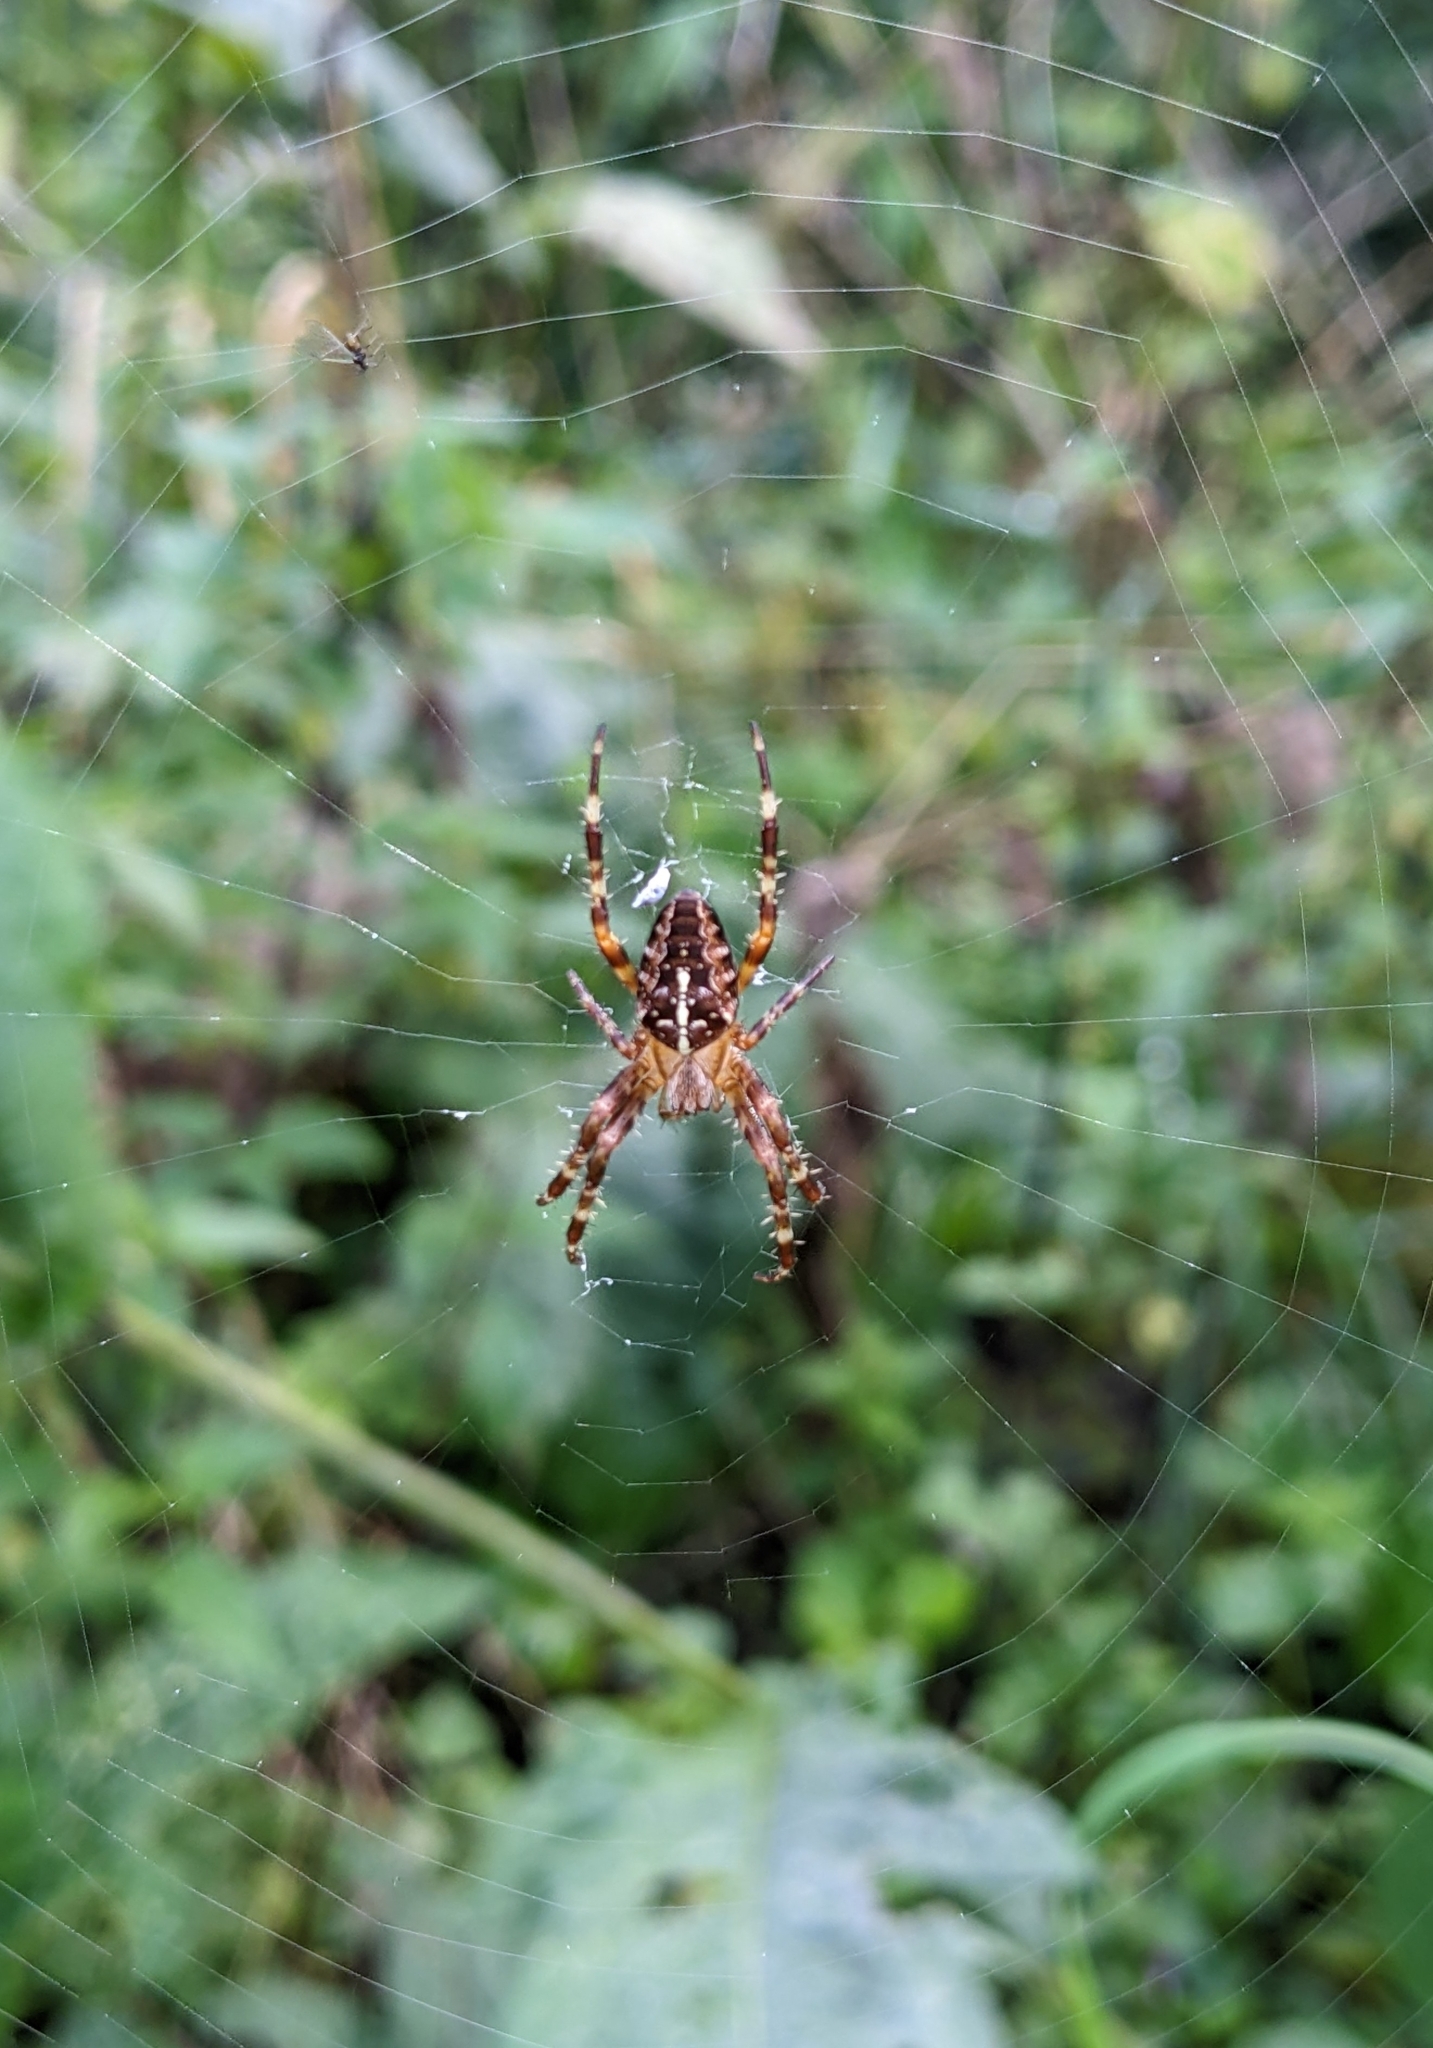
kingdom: Animalia
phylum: Arthropoda
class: Arachnida
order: Araneae
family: Araneidae
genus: Araneus
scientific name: Araneus diadematus
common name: Cross orbweaver
